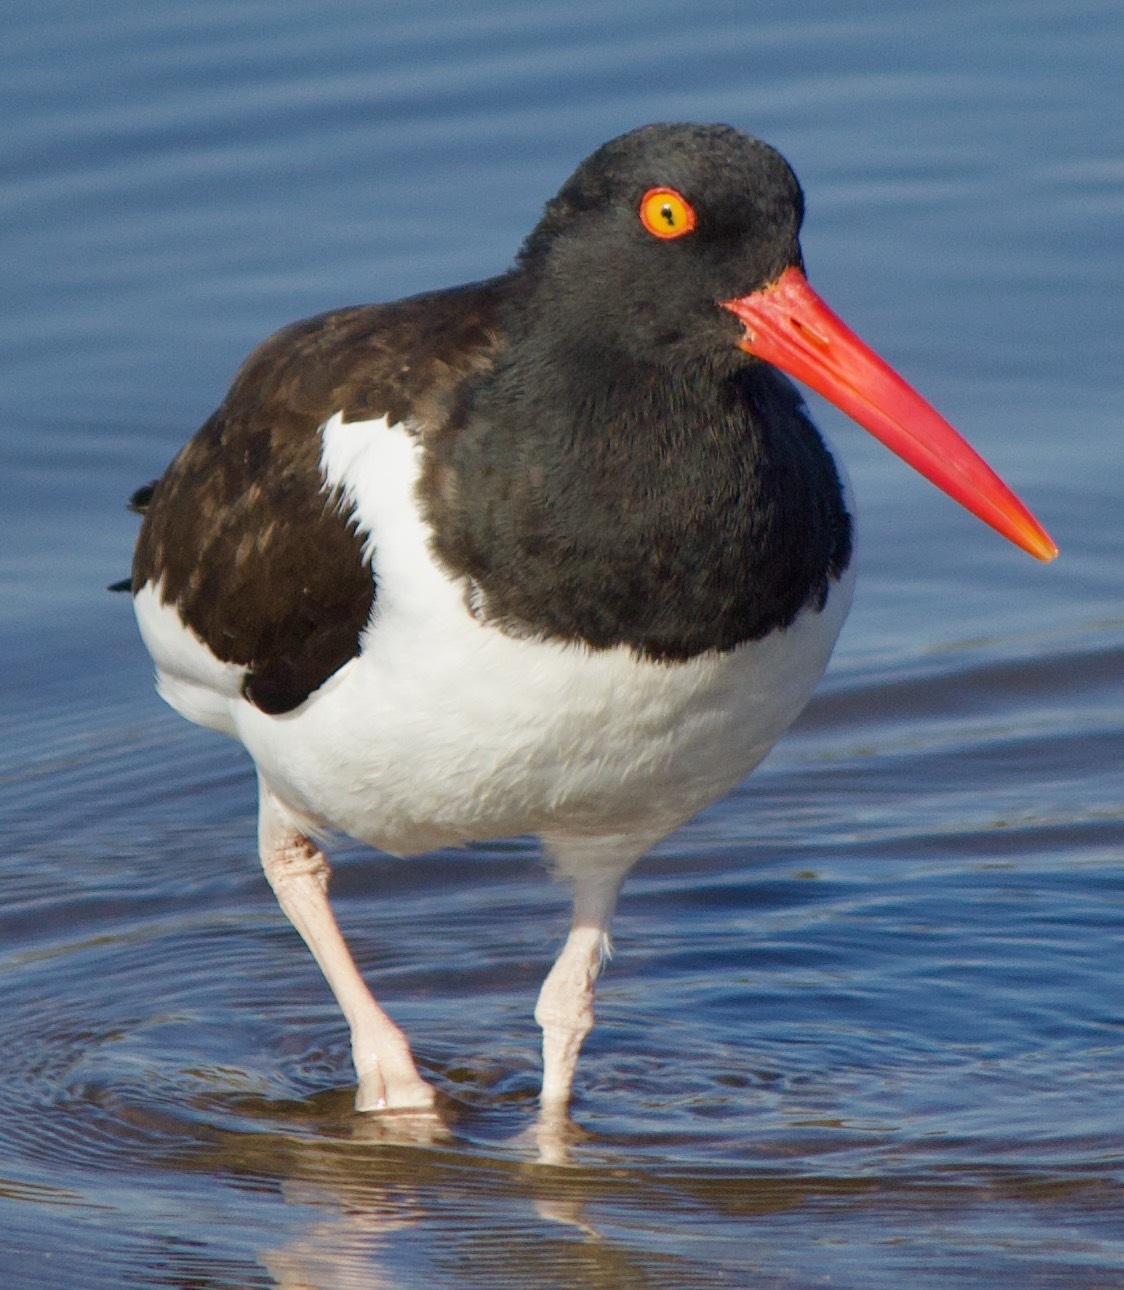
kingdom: Animalia
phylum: Chordata
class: Aves
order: Charadriiformes
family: Haematopodidae
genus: Haematopus
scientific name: Haematopus palliatus
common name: American oystercatcher
